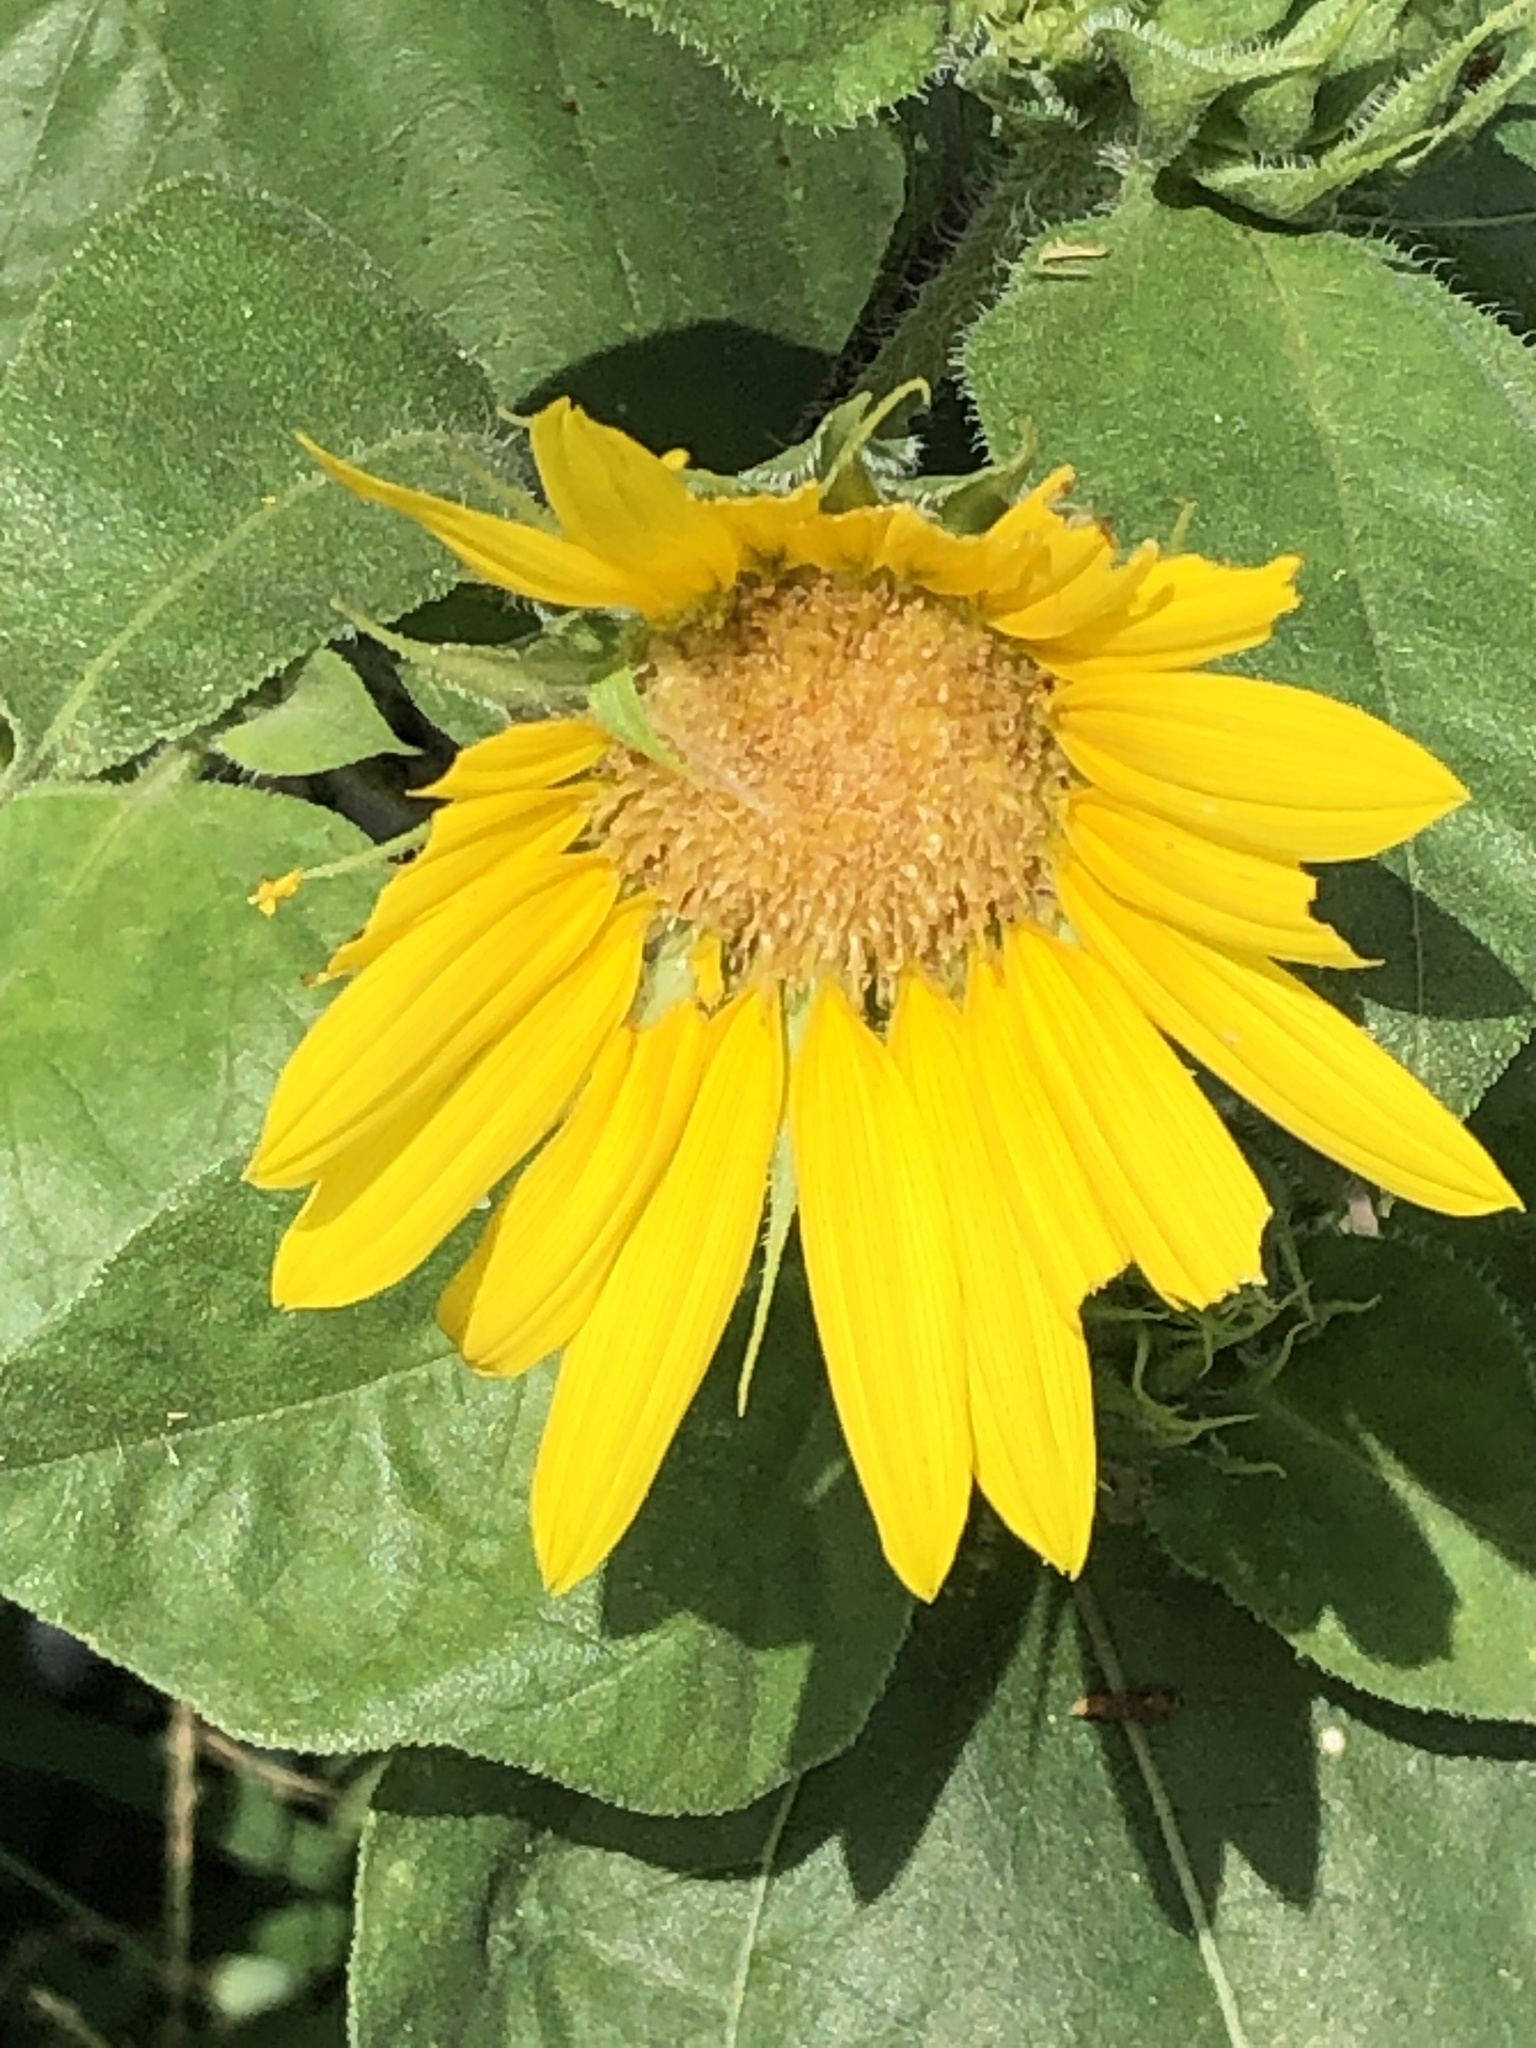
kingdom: Plantae
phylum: Tracheophyta
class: Magnoliopsida
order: Asterales
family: Asteraceae
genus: Helianthus
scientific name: Helianthus annuus
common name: Sunflower
